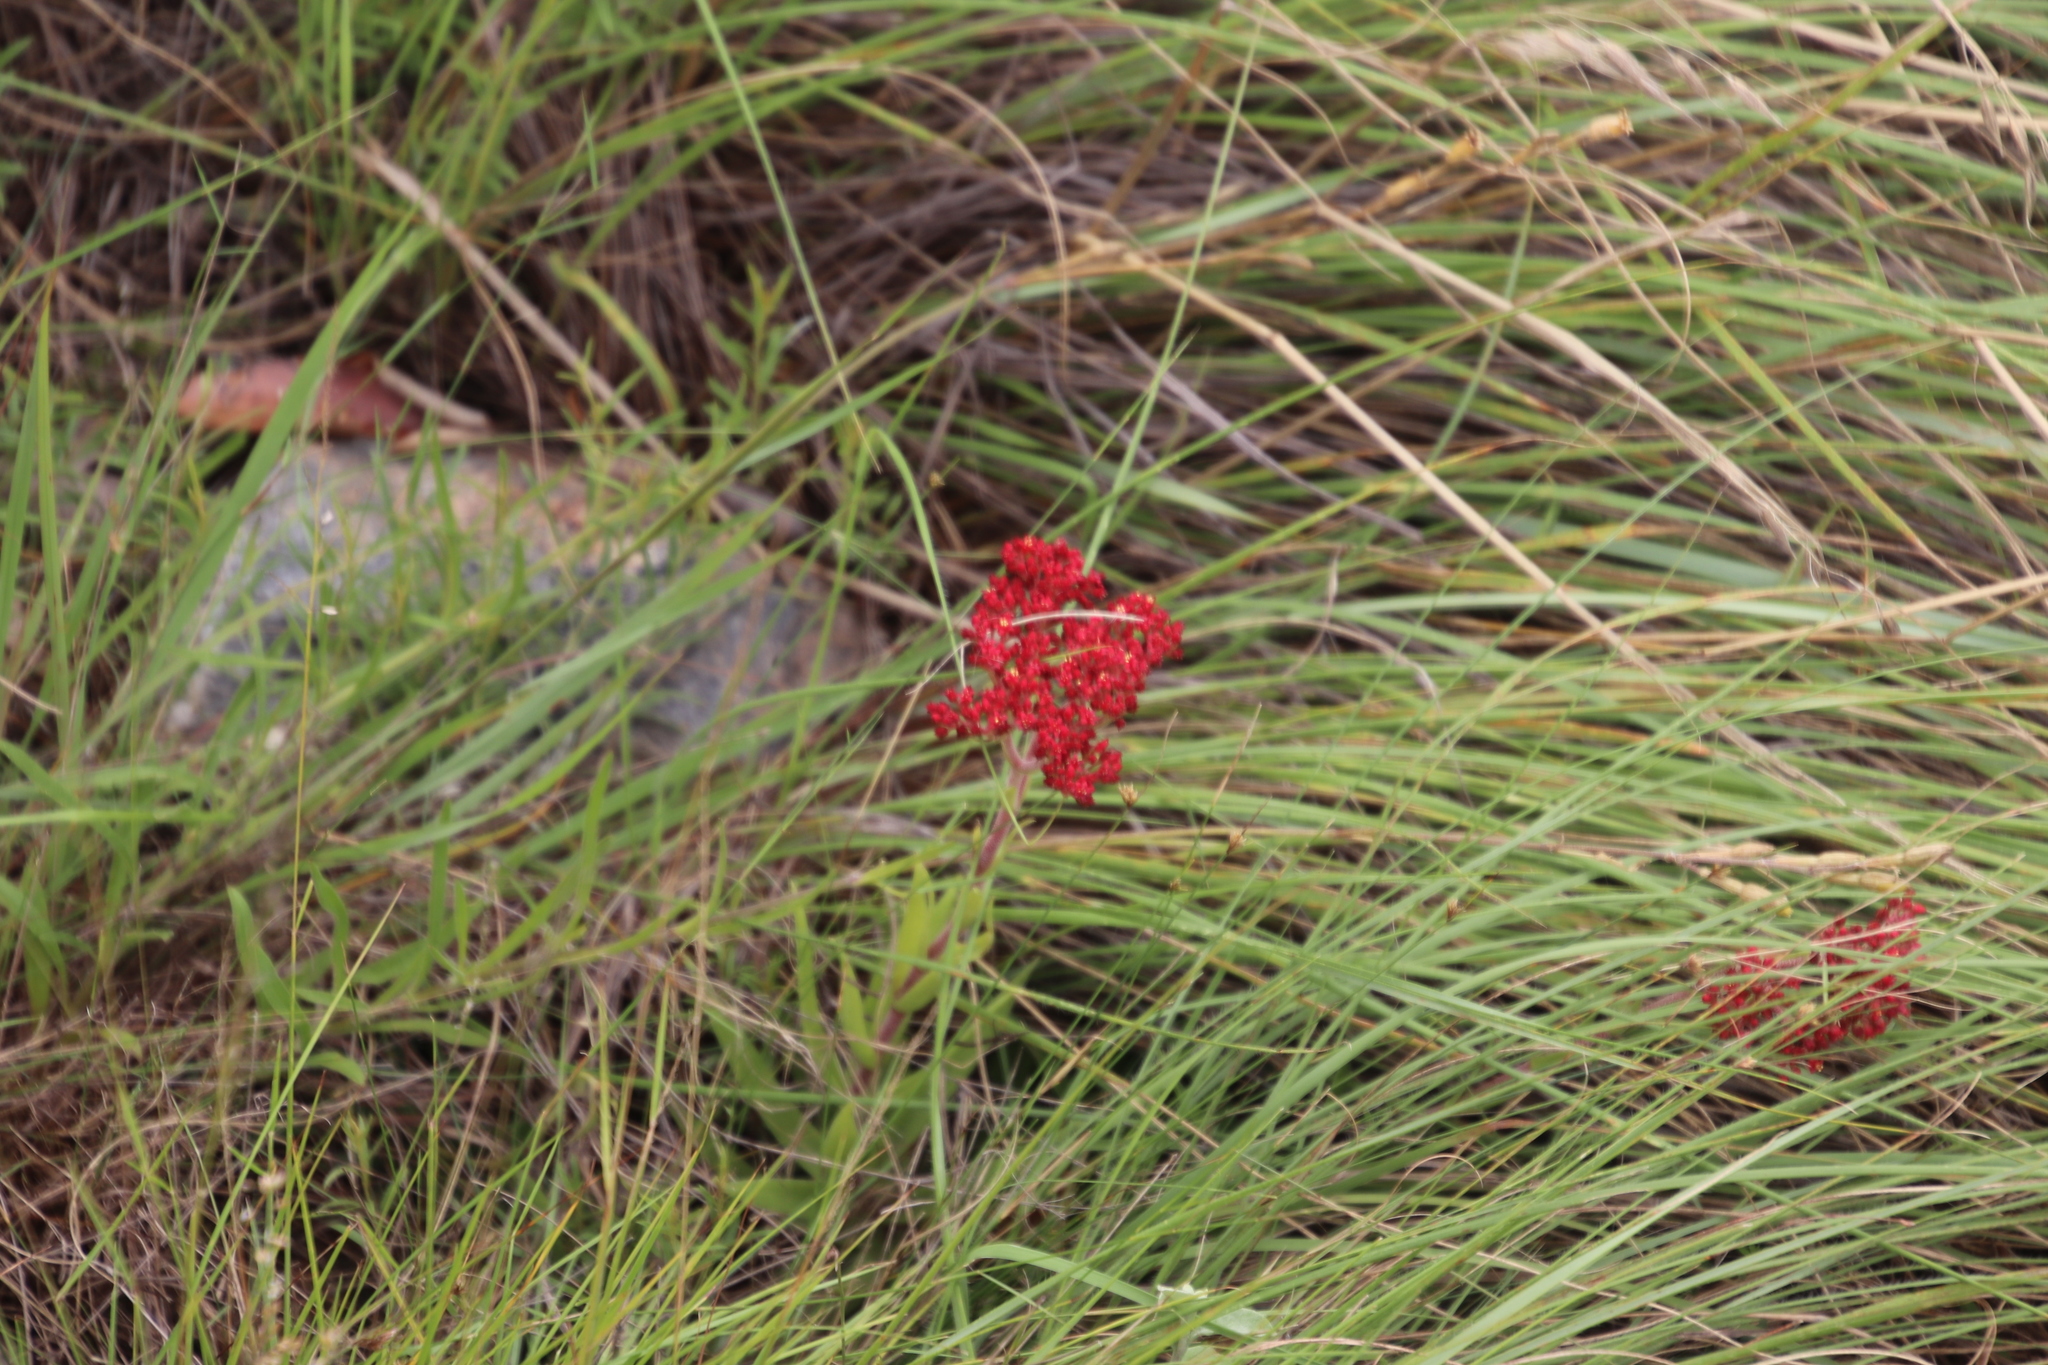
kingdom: Plantae
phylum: Tracheophyta
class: Magnoliopsida
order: Saxifragales
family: Crassulaceae
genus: Crassula
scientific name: Crassula alba
